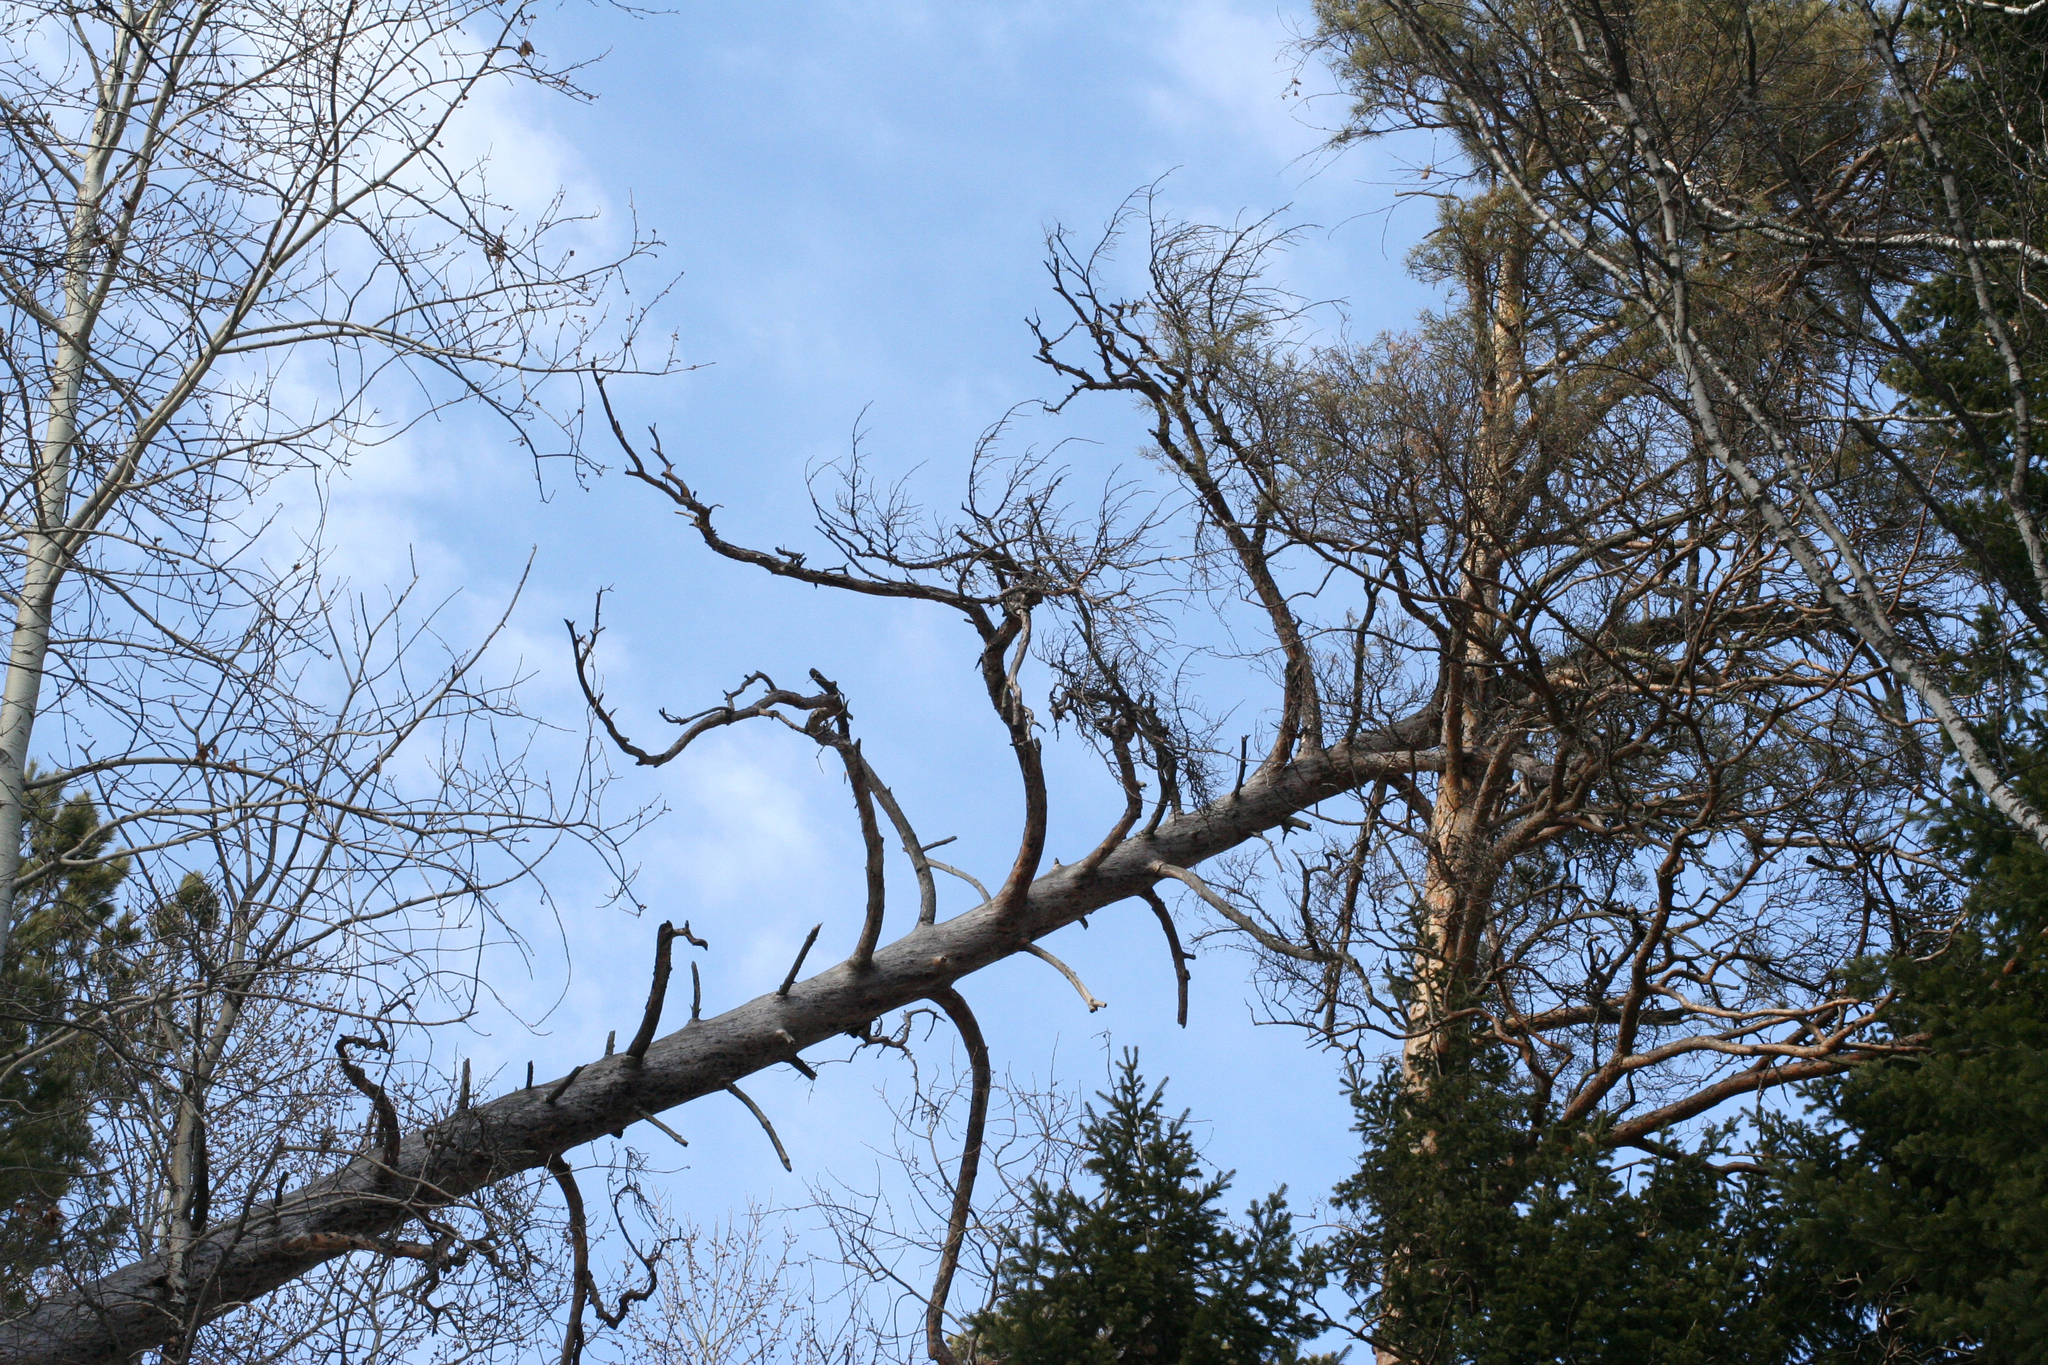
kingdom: Plantae
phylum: Tracheophyta
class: Pinopsida
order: Pinales
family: Pinaceae
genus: Pinus
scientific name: Pinus sylvestris
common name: Scots pine
